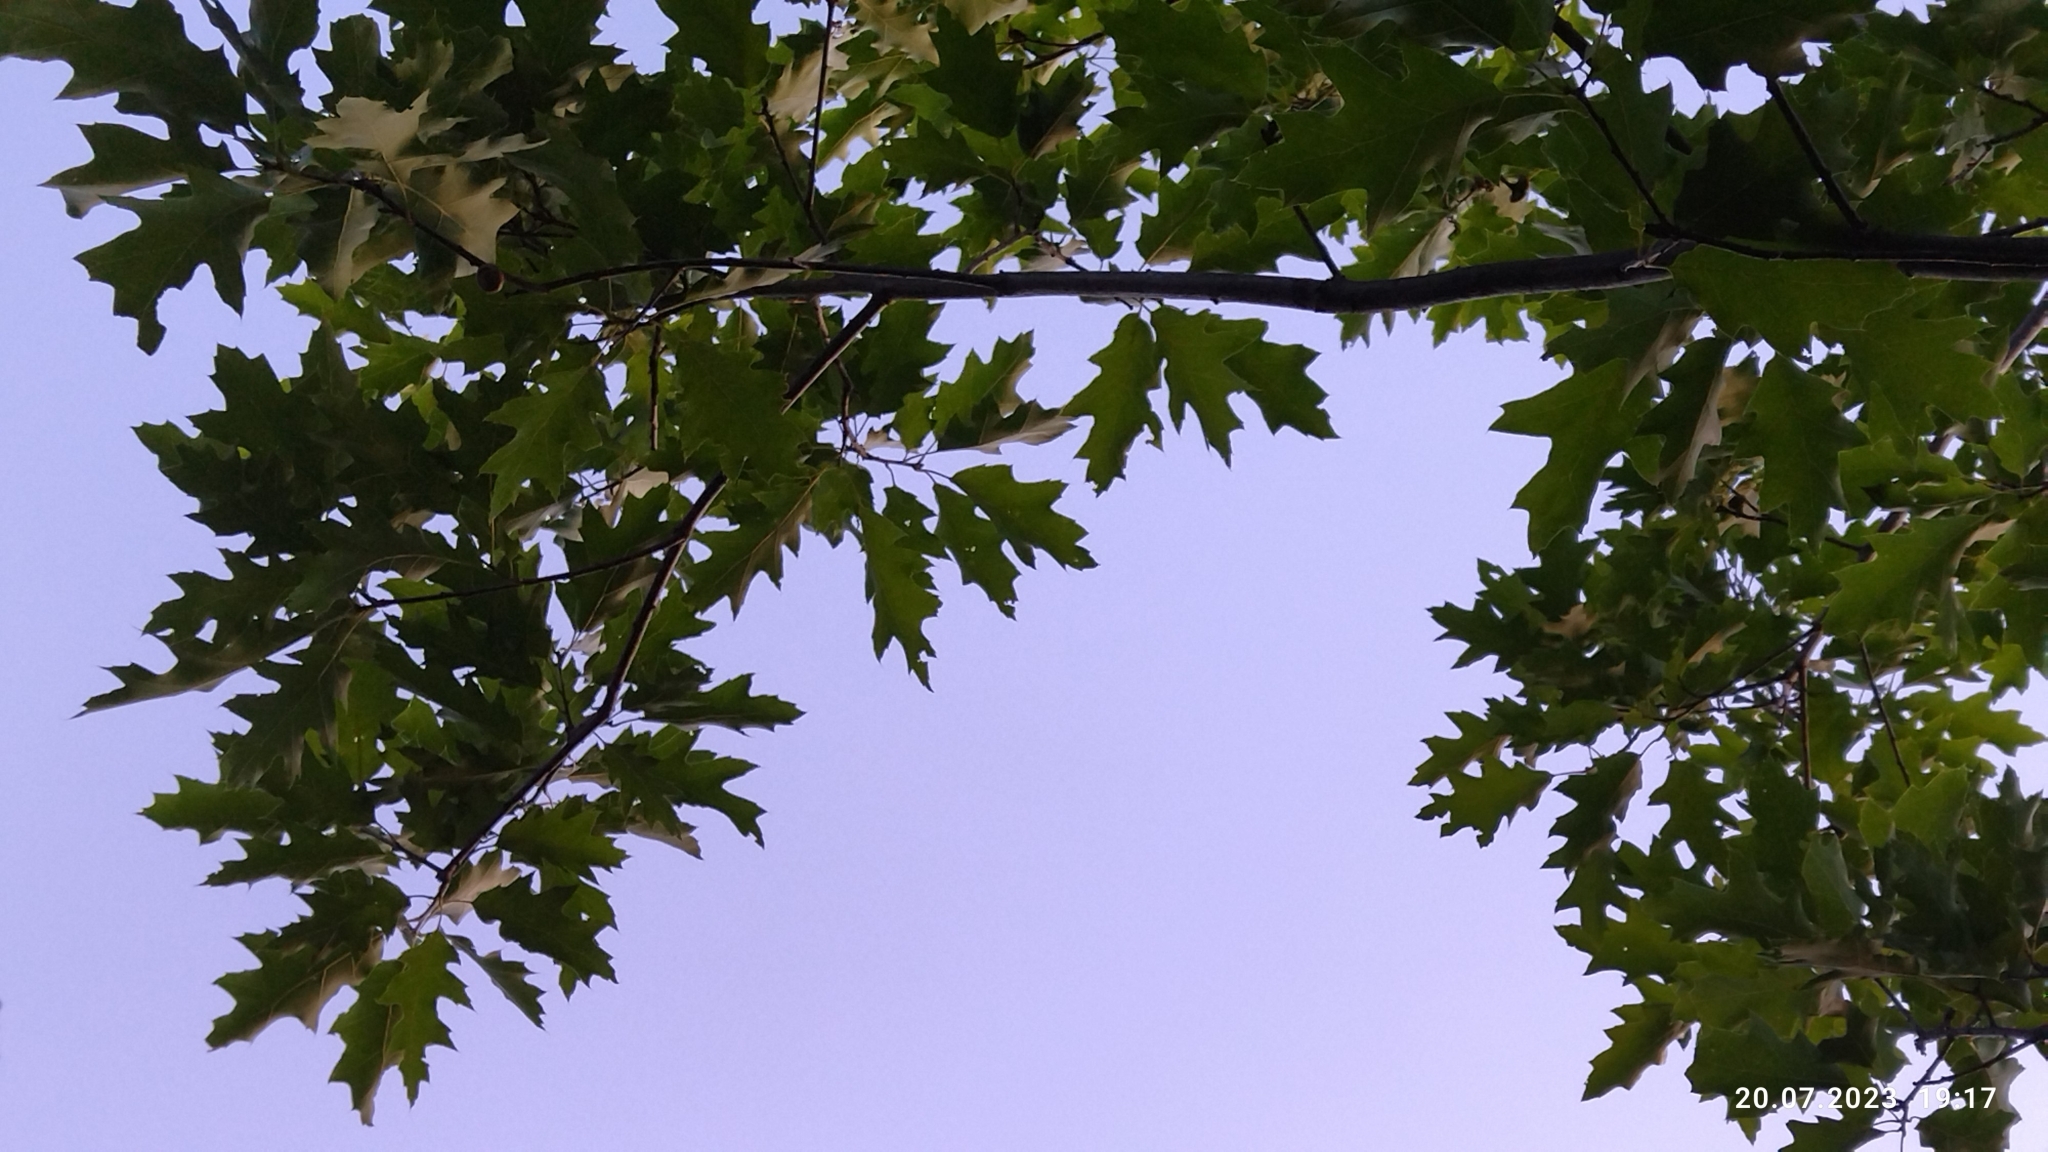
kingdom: Plantae
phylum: Tracheophyta
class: Magnoliopsida
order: Fagales
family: Fagaceae
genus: Quercus
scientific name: Quercus rubra
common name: Red oak
